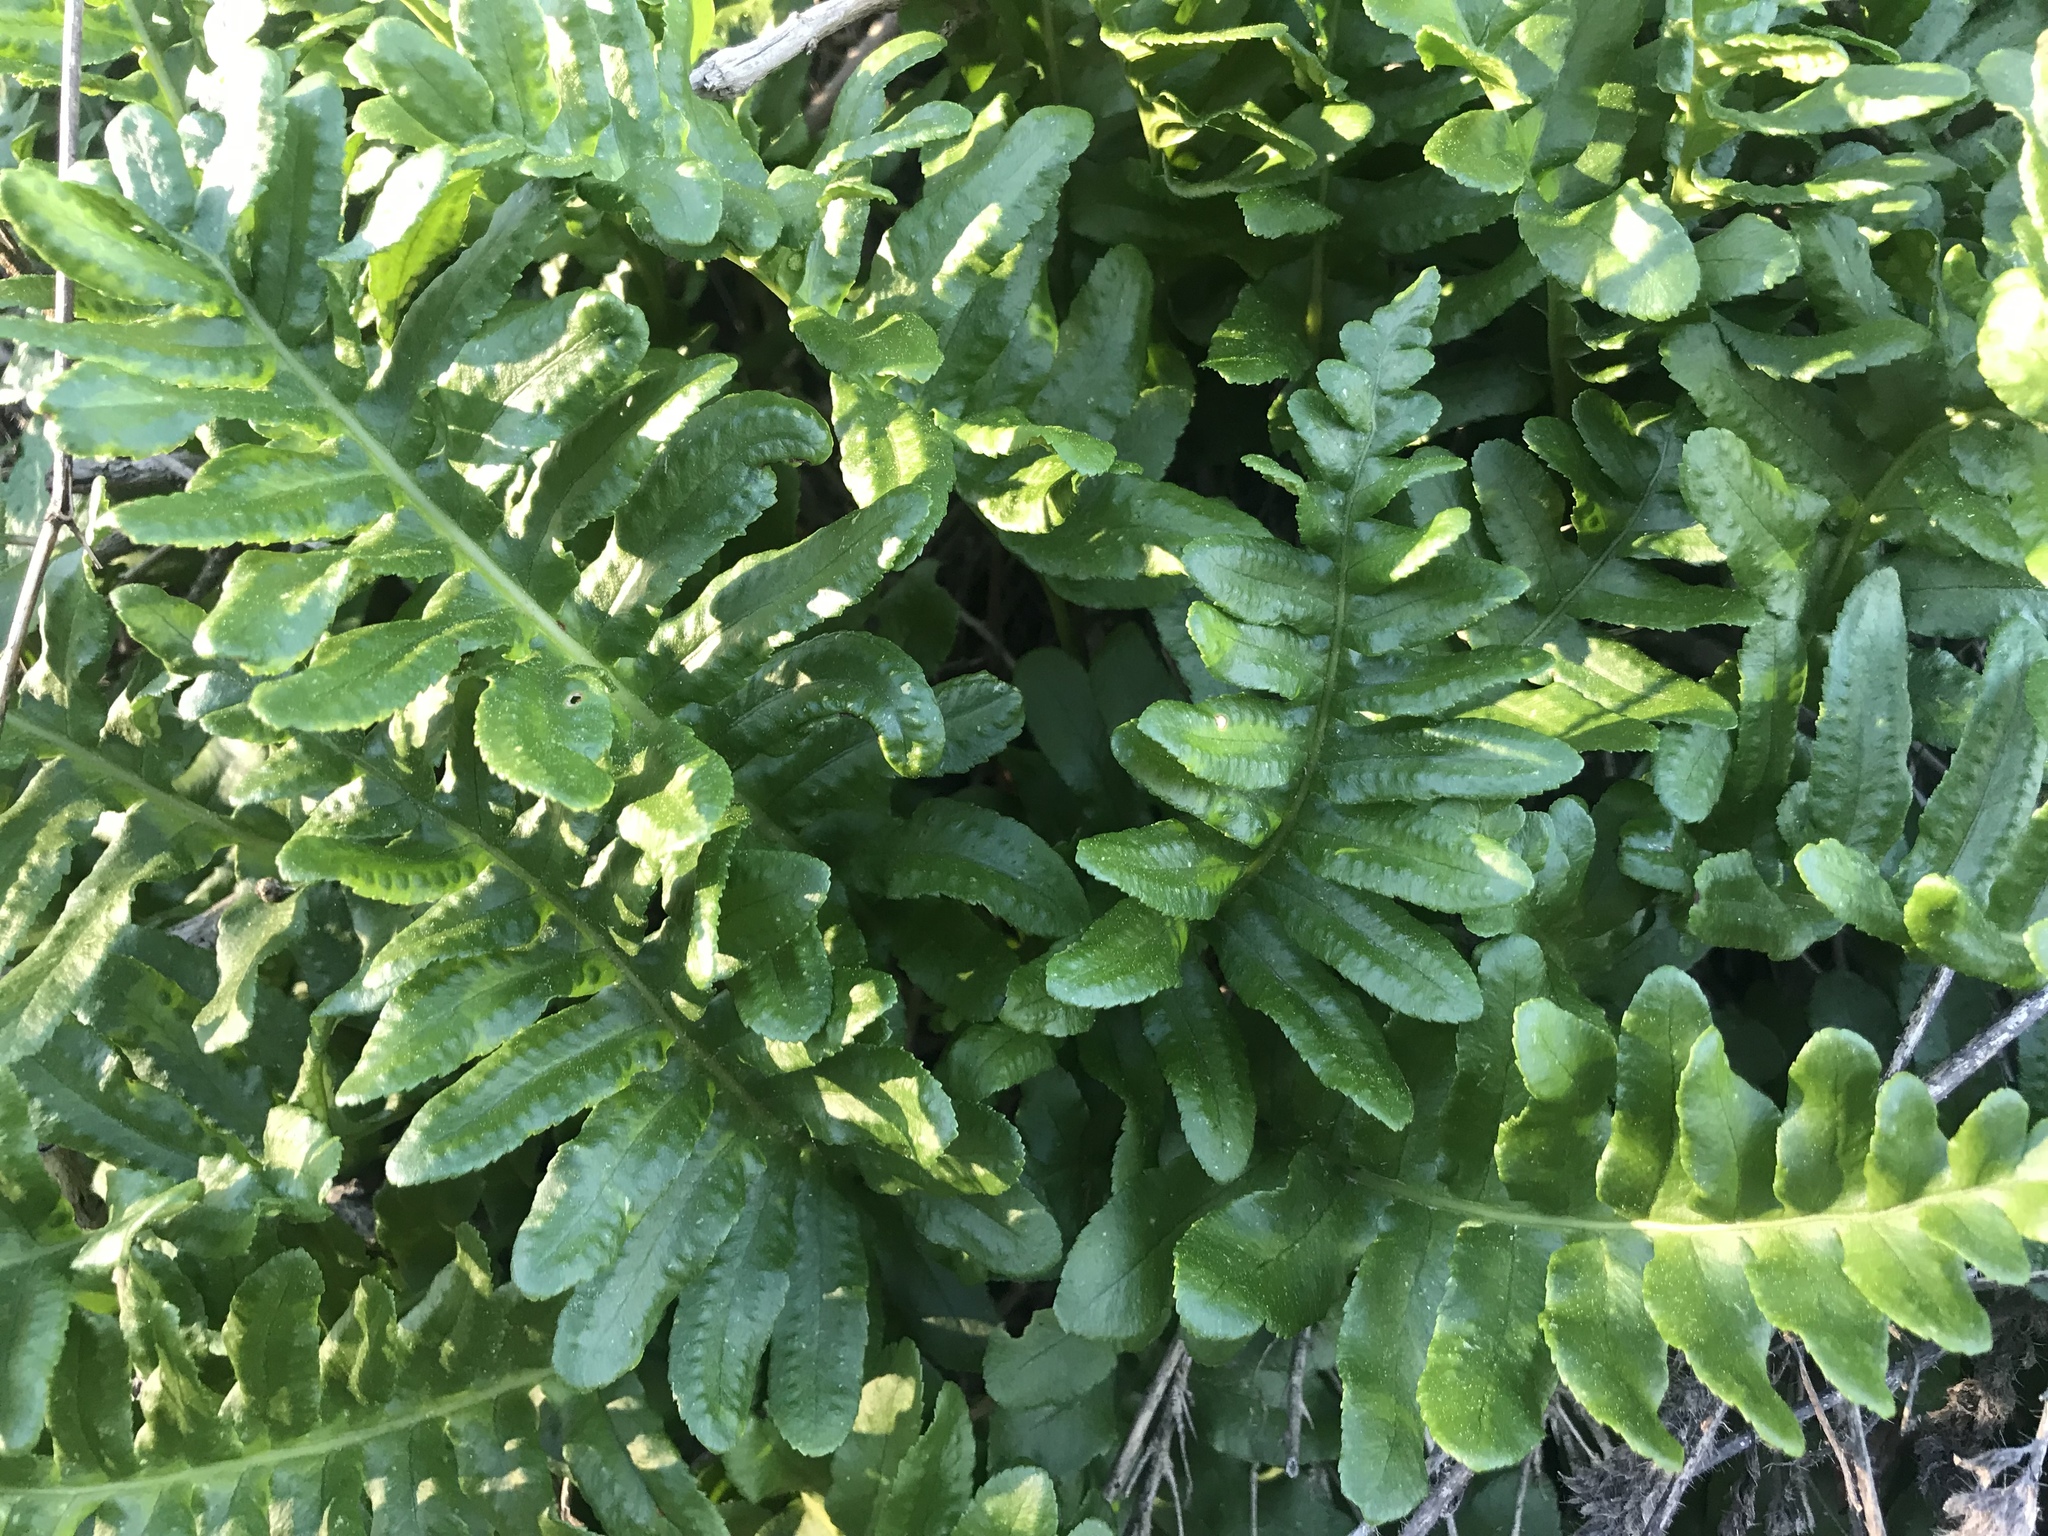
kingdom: Plantae
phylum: Tracheophyta
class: Polypodiopsida
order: Polypodiales
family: Polypodiaceae
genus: Polypodium
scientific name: Polypodium californicum
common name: California polypody
